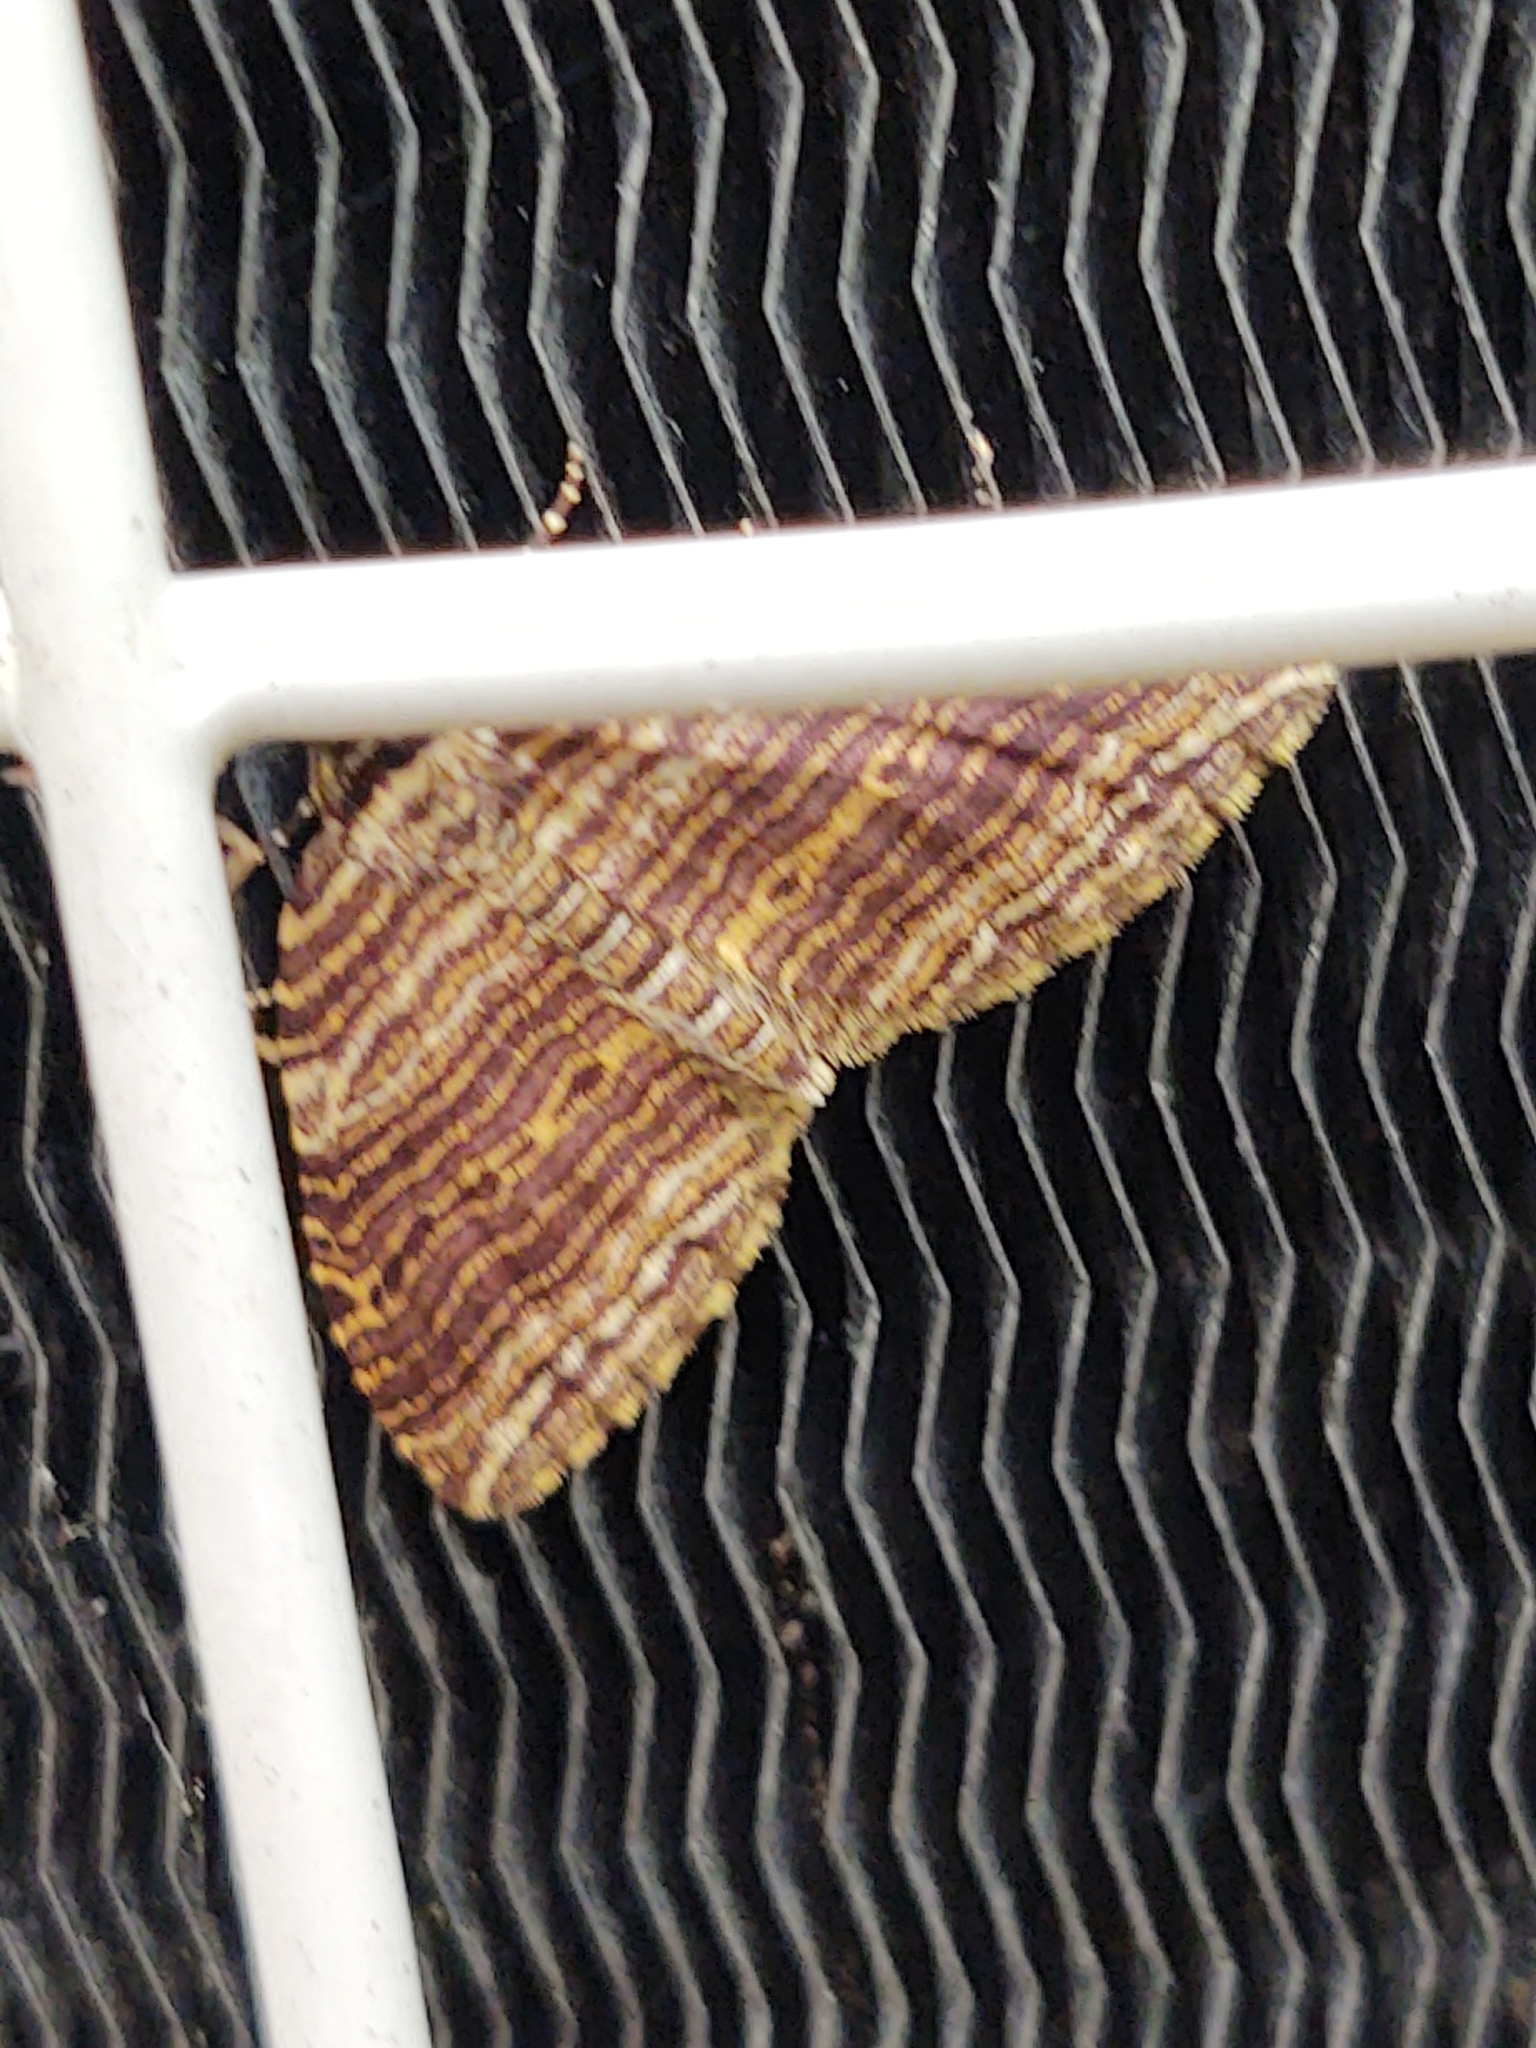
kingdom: Animalia
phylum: Arthropoda
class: Insecta
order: Lepidoptera
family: Geometridae
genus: Anticlea
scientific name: Anticlea multiferata
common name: Many-lined carpet
